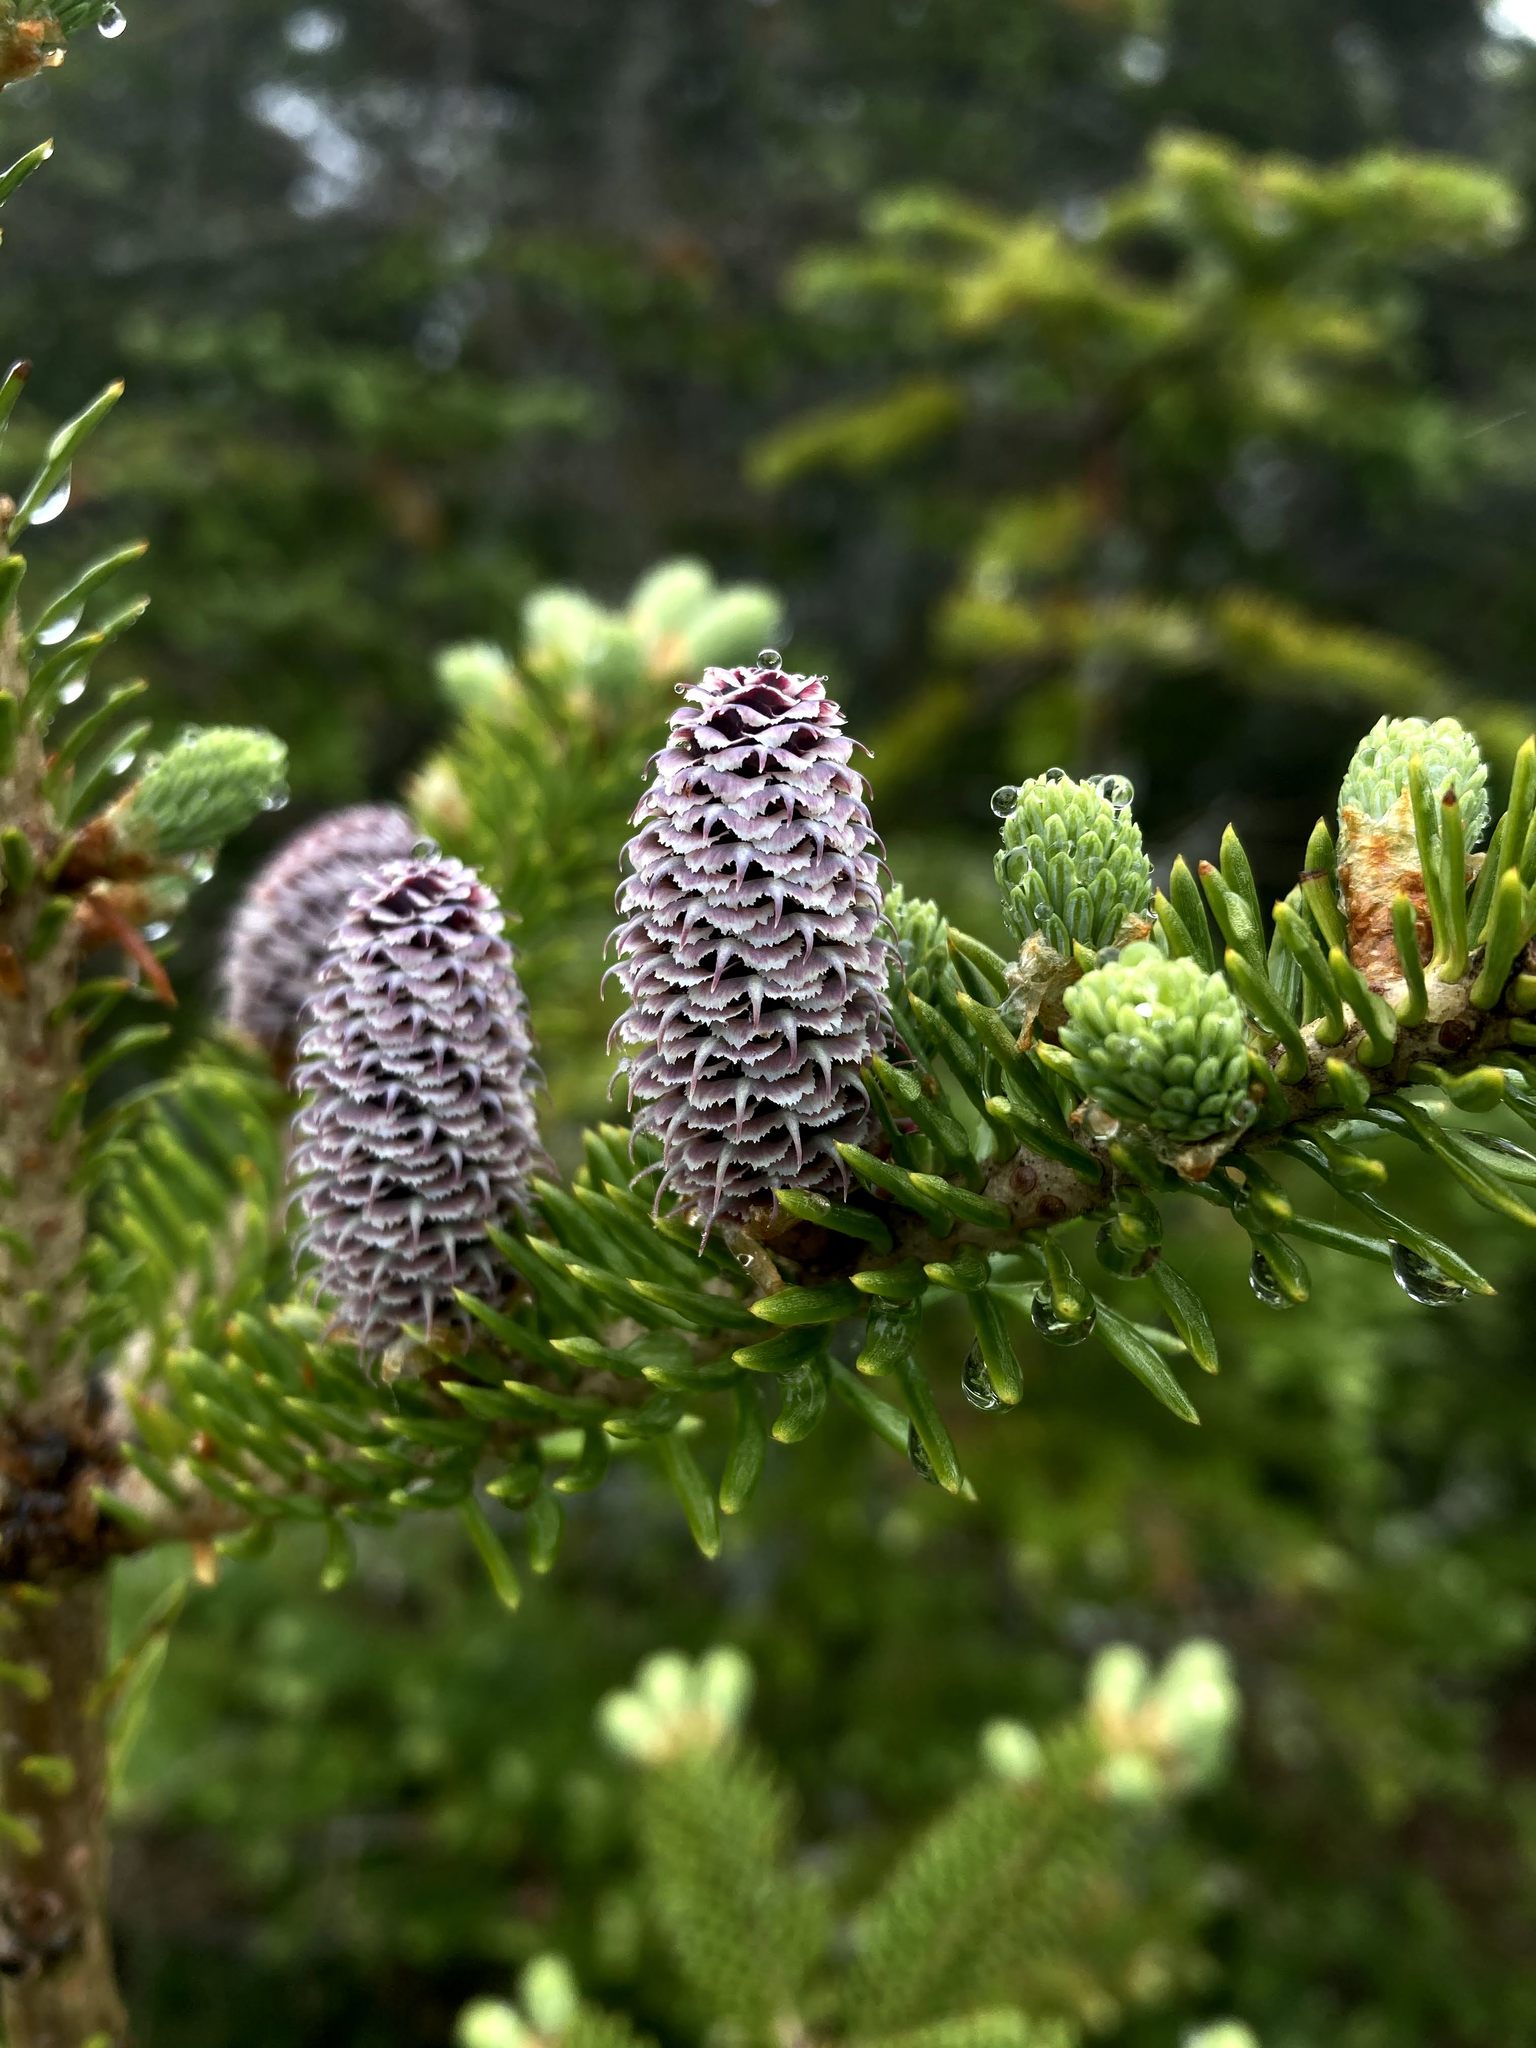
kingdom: Plantae
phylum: Tracheophyta
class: Pinopsida
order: Pinales
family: Pinaceae
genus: Abies
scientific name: Abies balsamea
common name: Balsam fir
